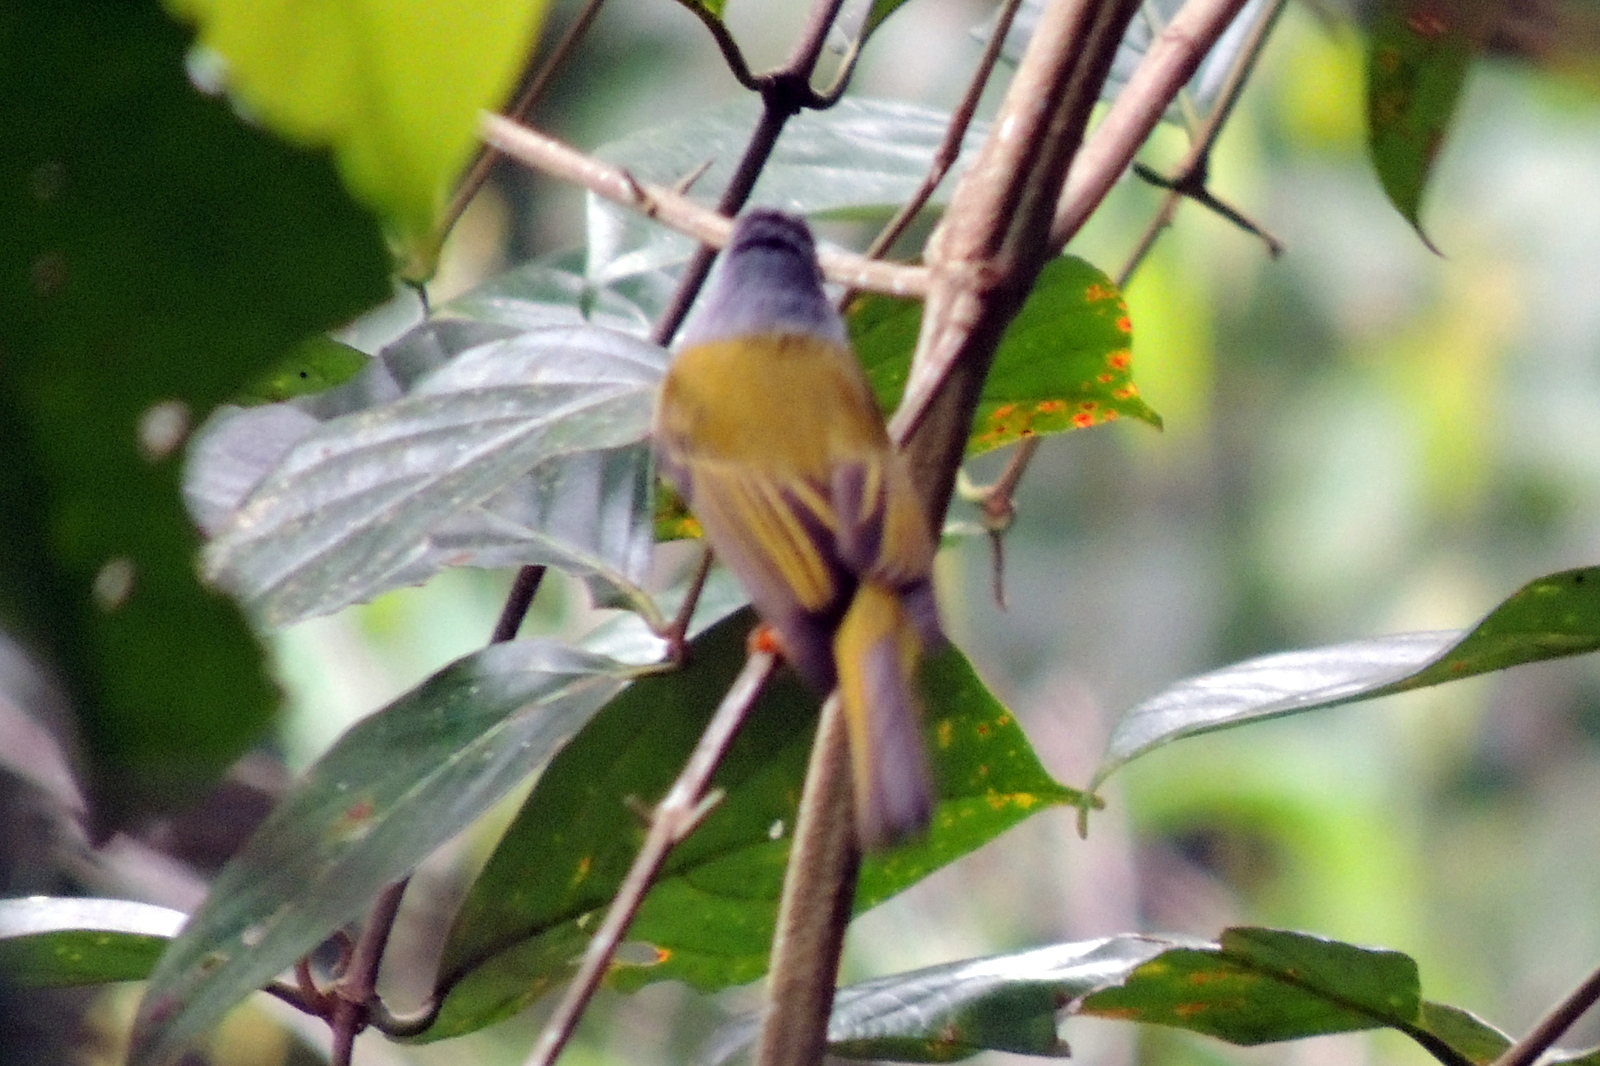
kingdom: Animalia
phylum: Chordata
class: Aves
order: Passeriformes
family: Stenostiridae
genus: Culicicapa
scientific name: Culicicapa ceylonensis
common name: Grey-headed canary-flycatcher
